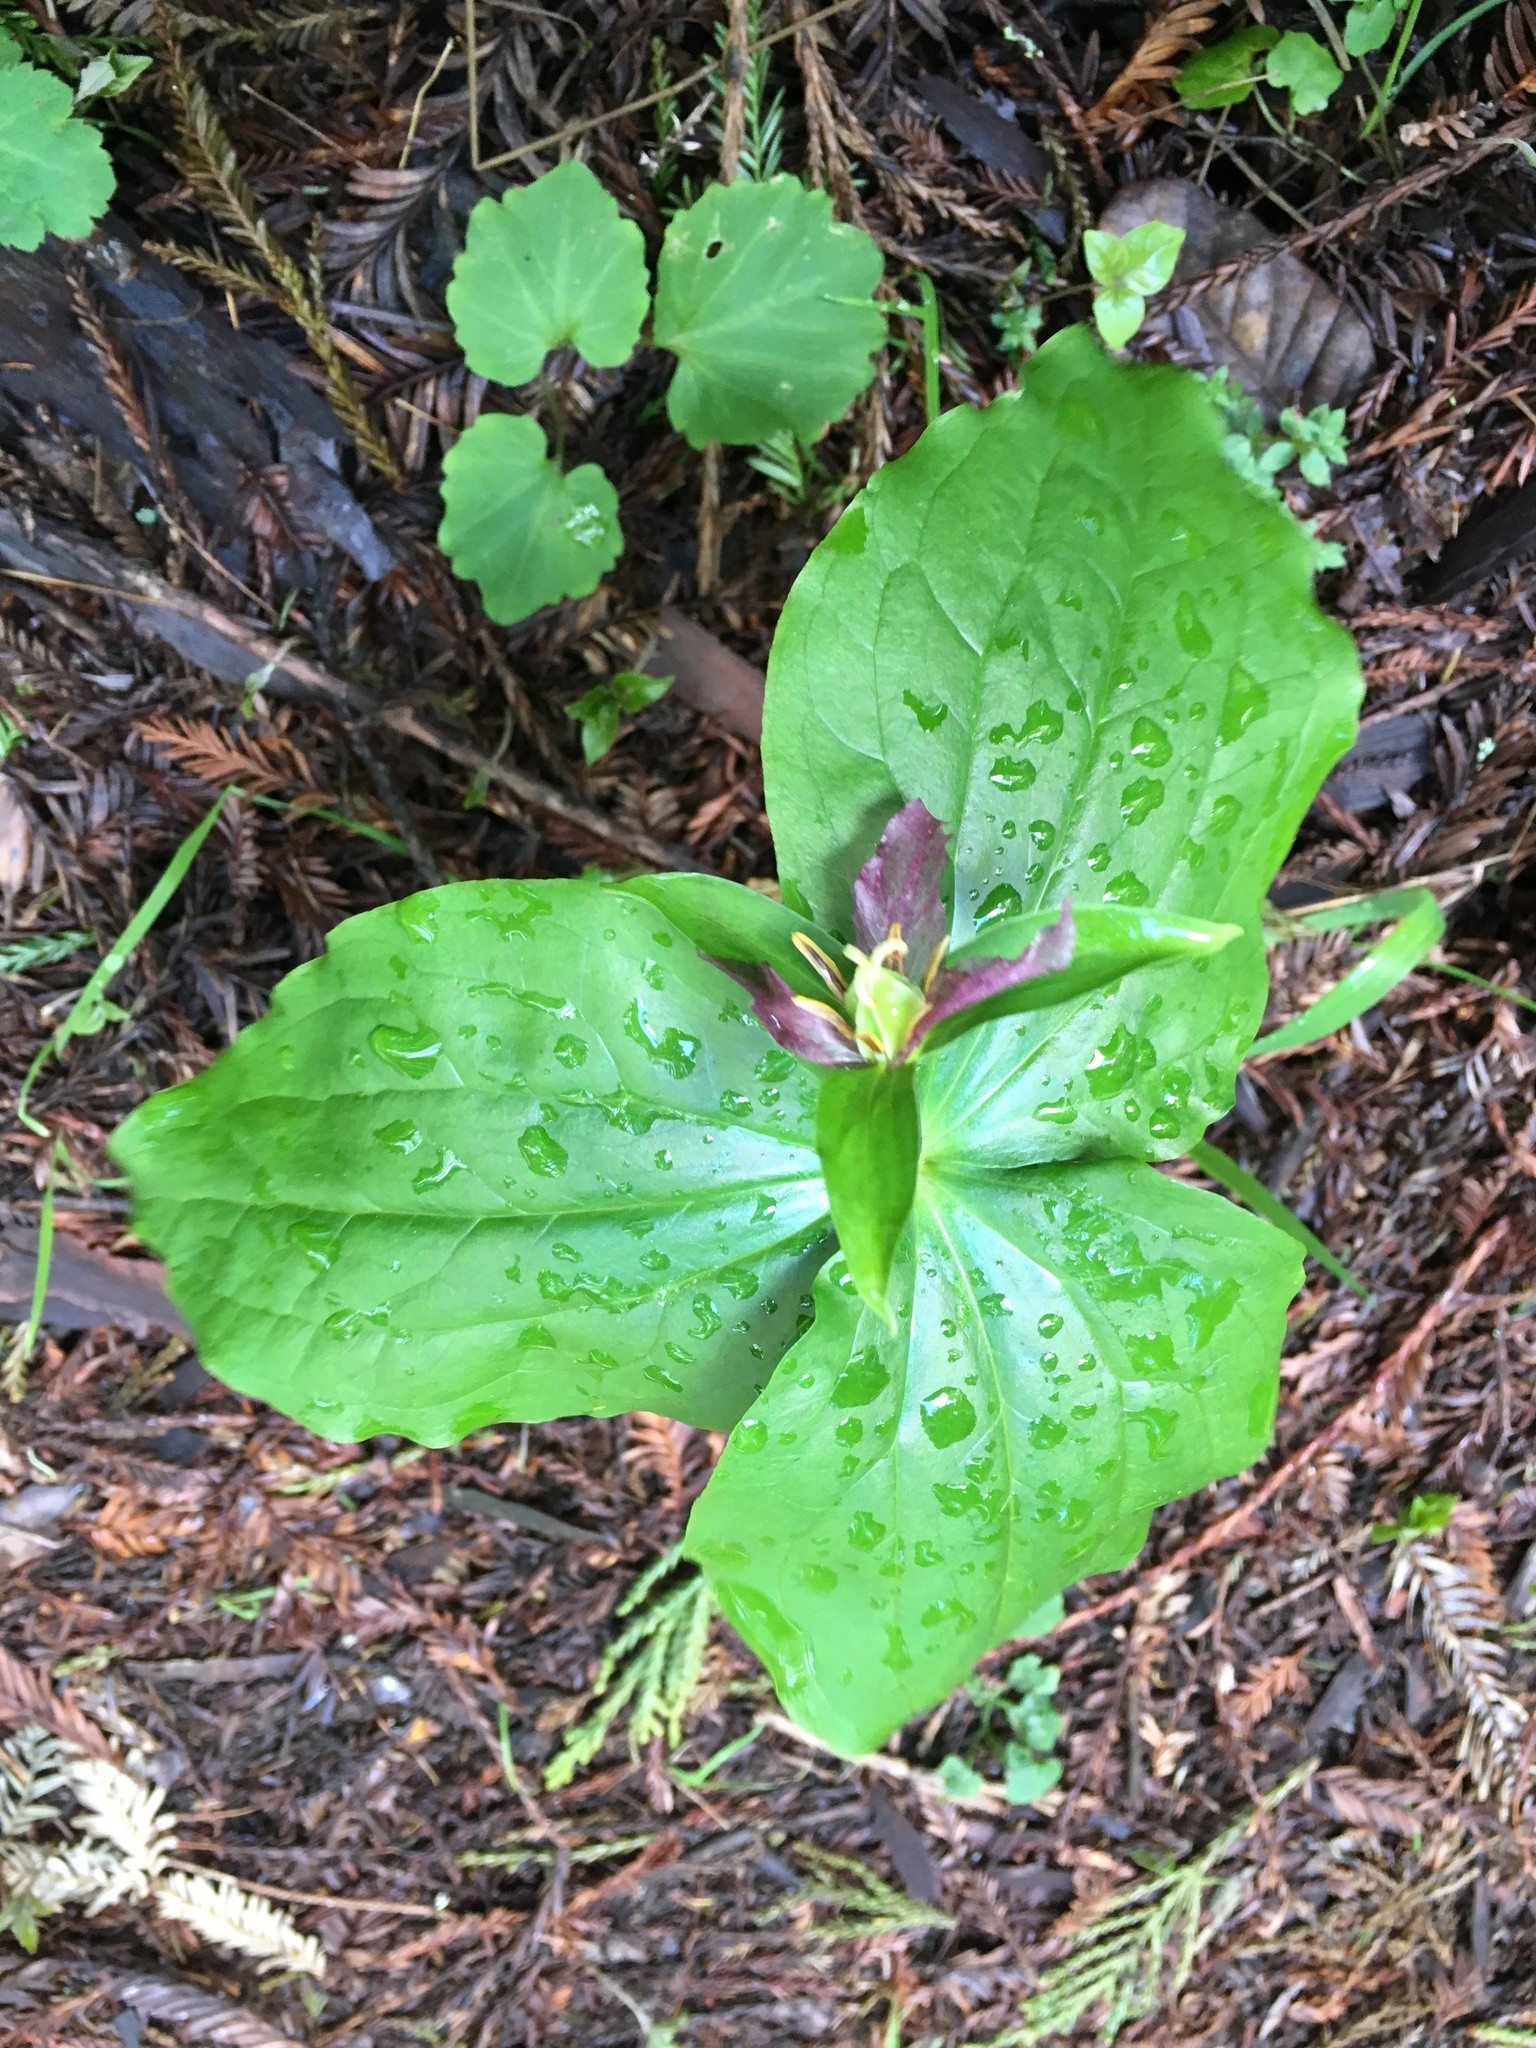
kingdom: Plantae
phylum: Tracheophyta
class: Liliopsida
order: Liliales
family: Melanthiaceae
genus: Trillium
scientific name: Trillium chloropetalum
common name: Giant trillium
